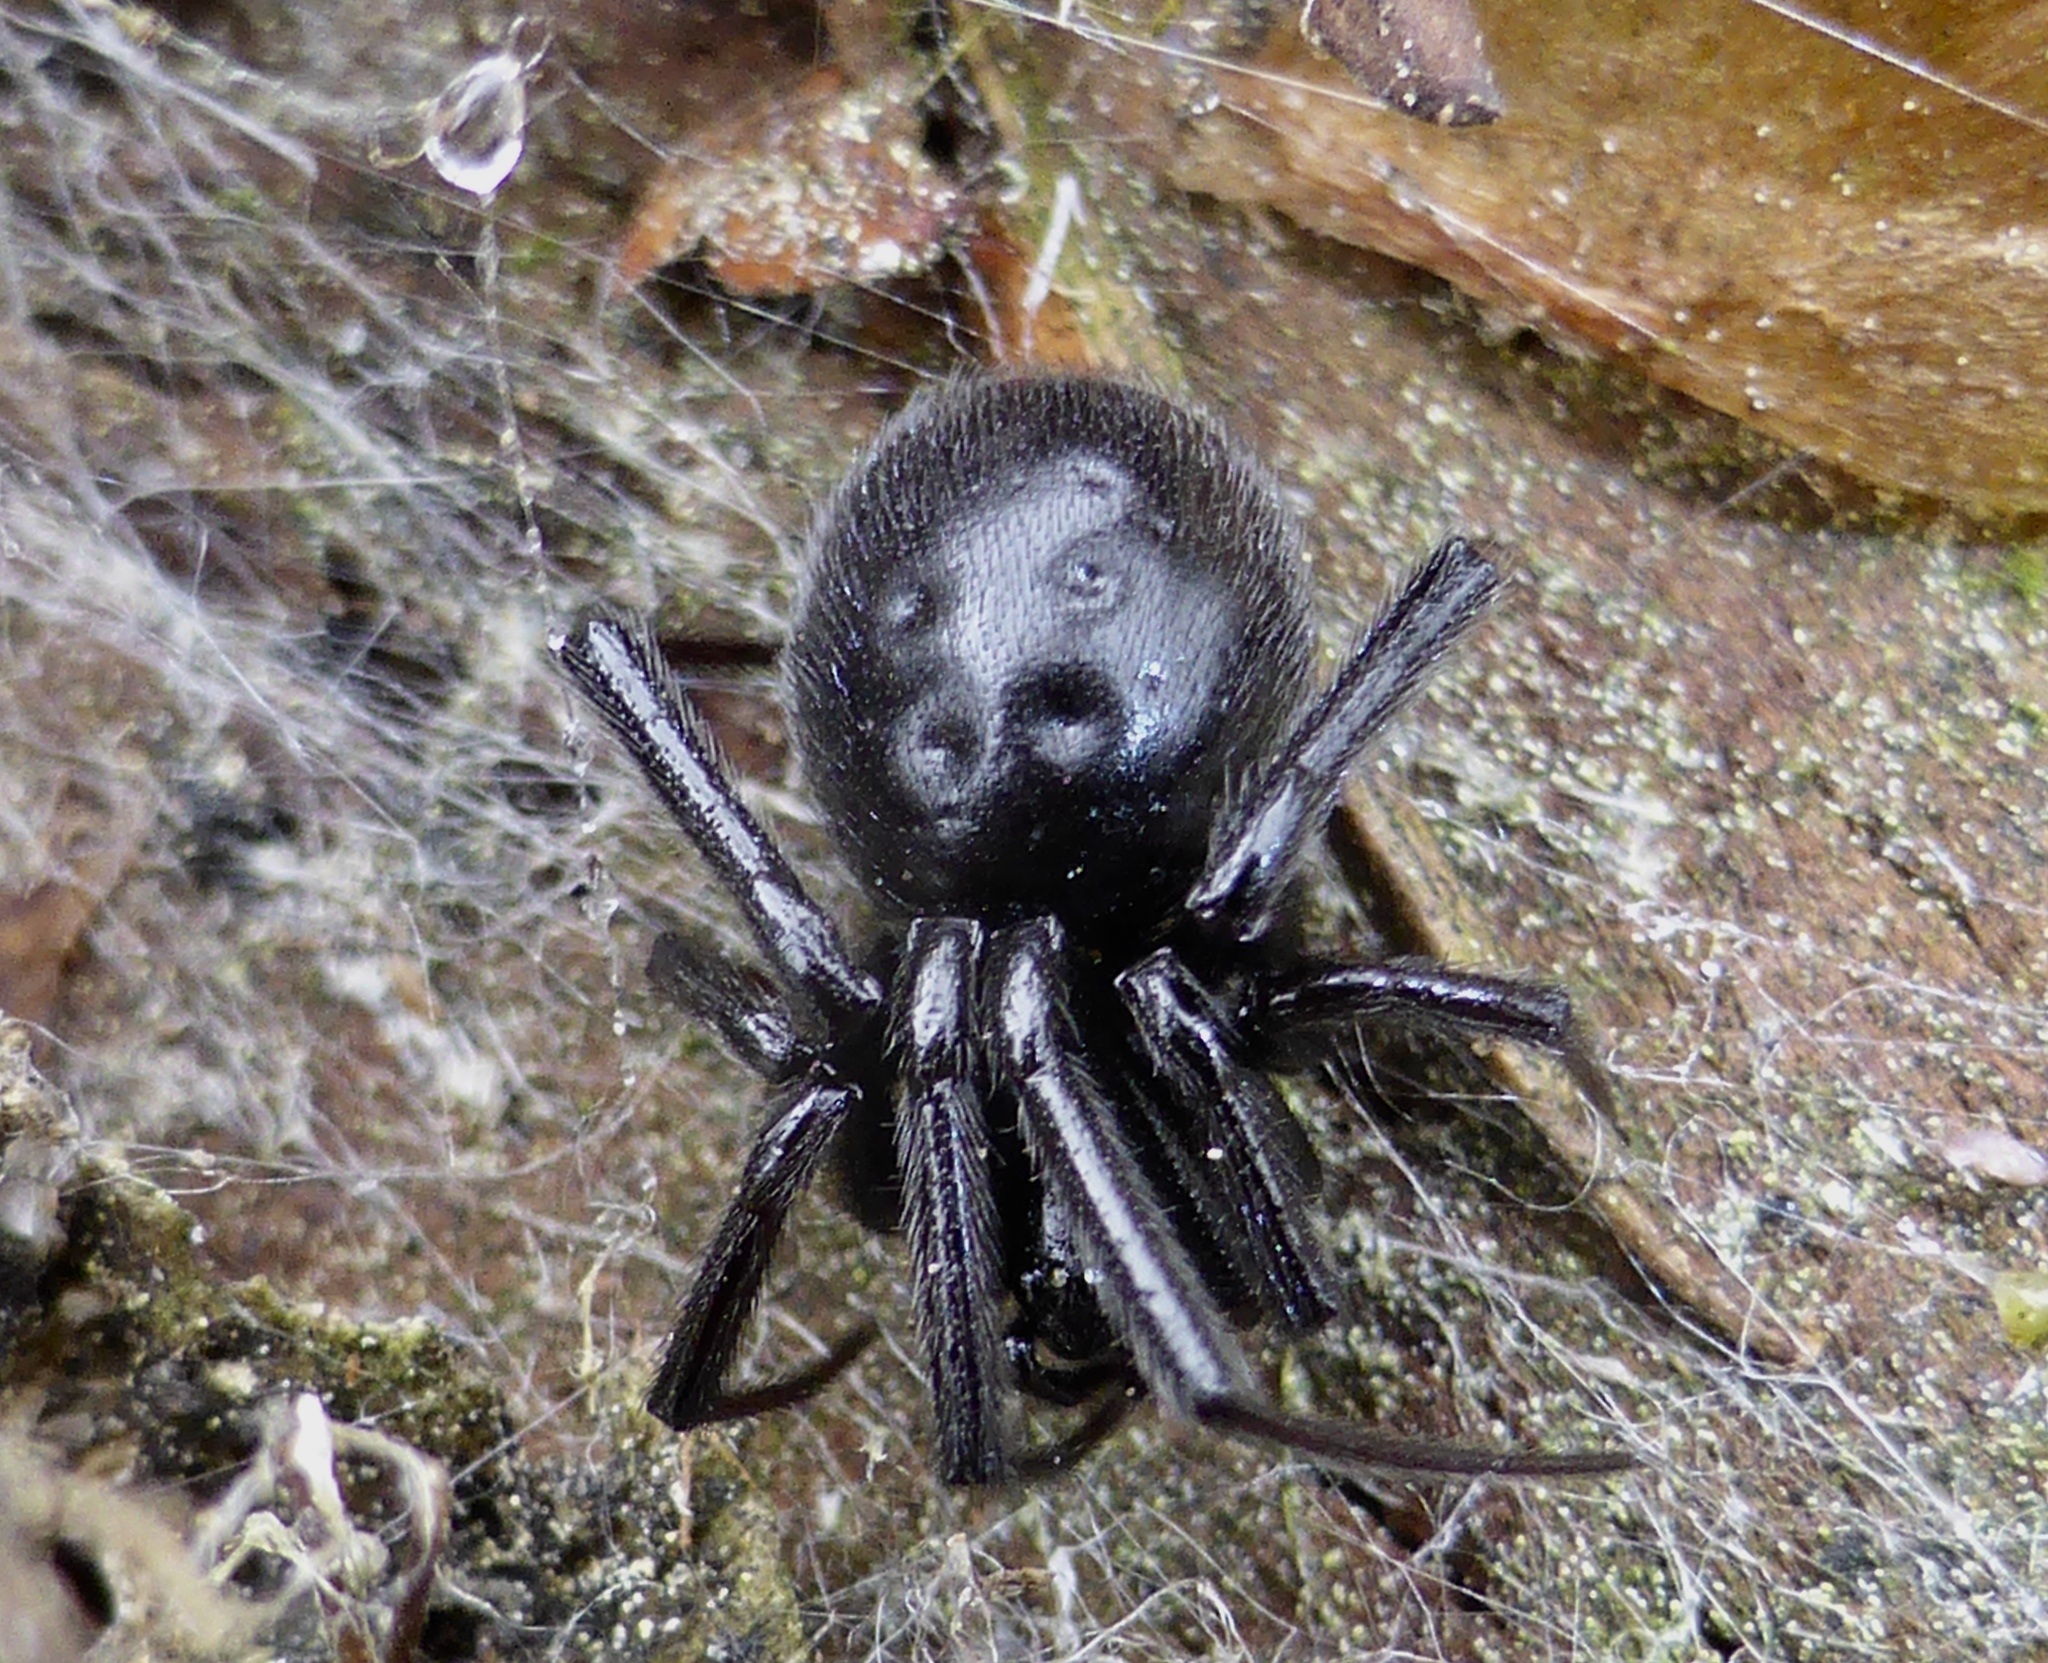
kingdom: Animalia
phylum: Arthropoda
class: Arachnida
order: Araneae
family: Theridiidae
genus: Steatoda
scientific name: Steatoda capensis
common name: Cobweb weaver
